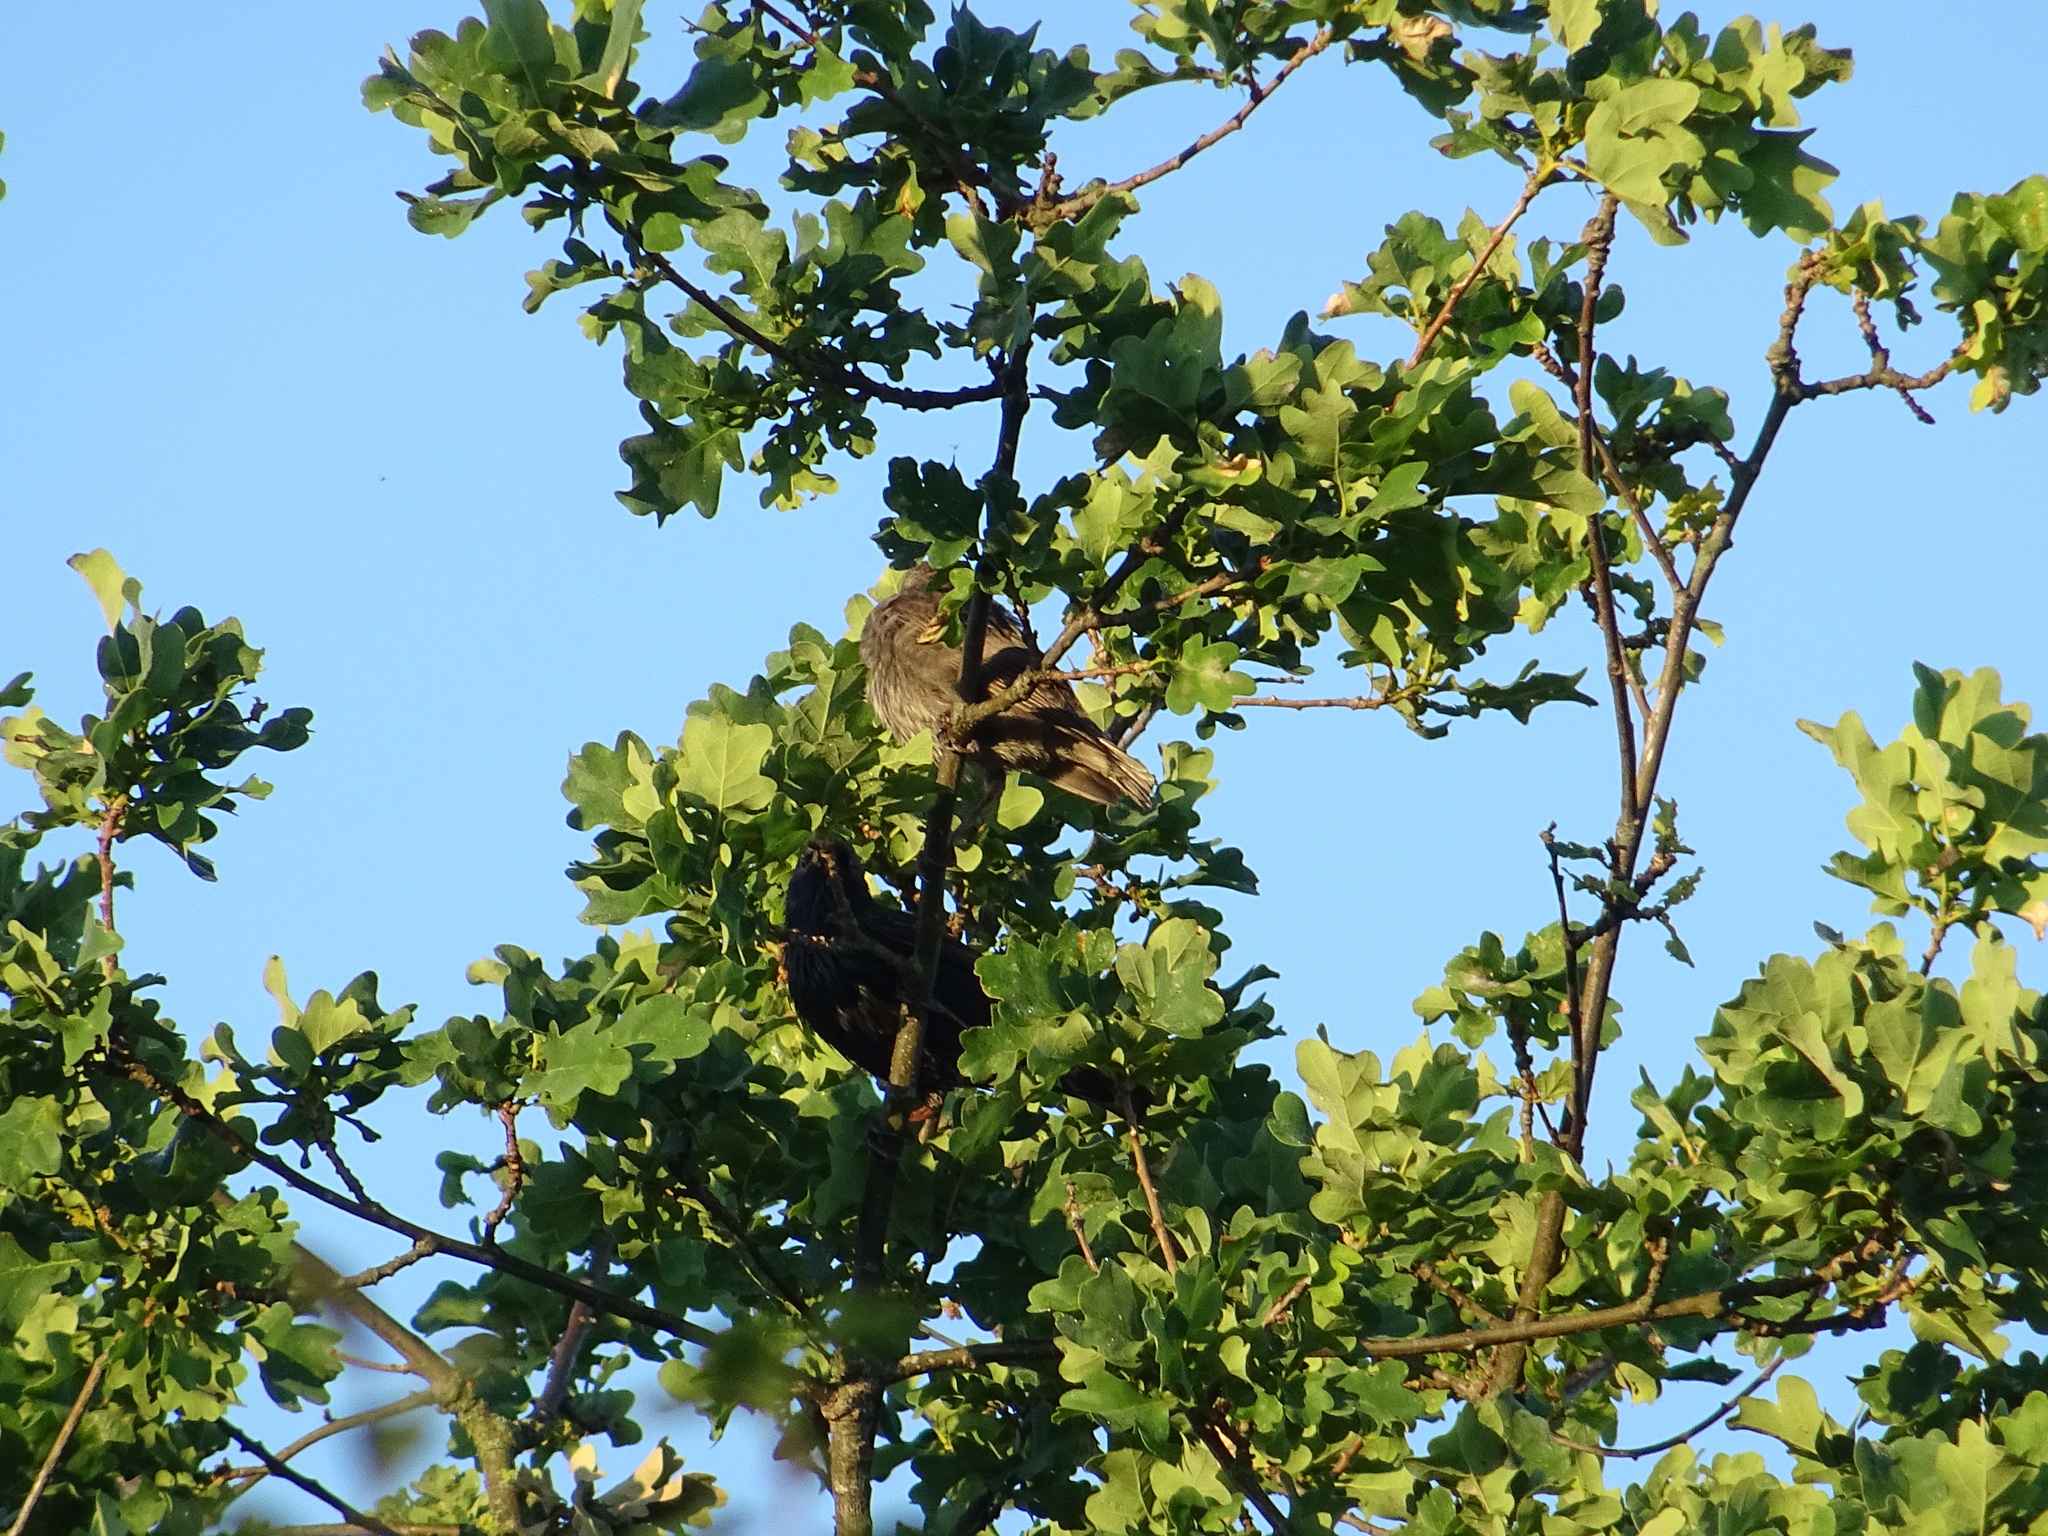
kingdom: Animalia
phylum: Chordata
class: Aves
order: Passeriformes
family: Sturnidae
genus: Sturnus
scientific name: Sturnus vulgaris
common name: Common starling
